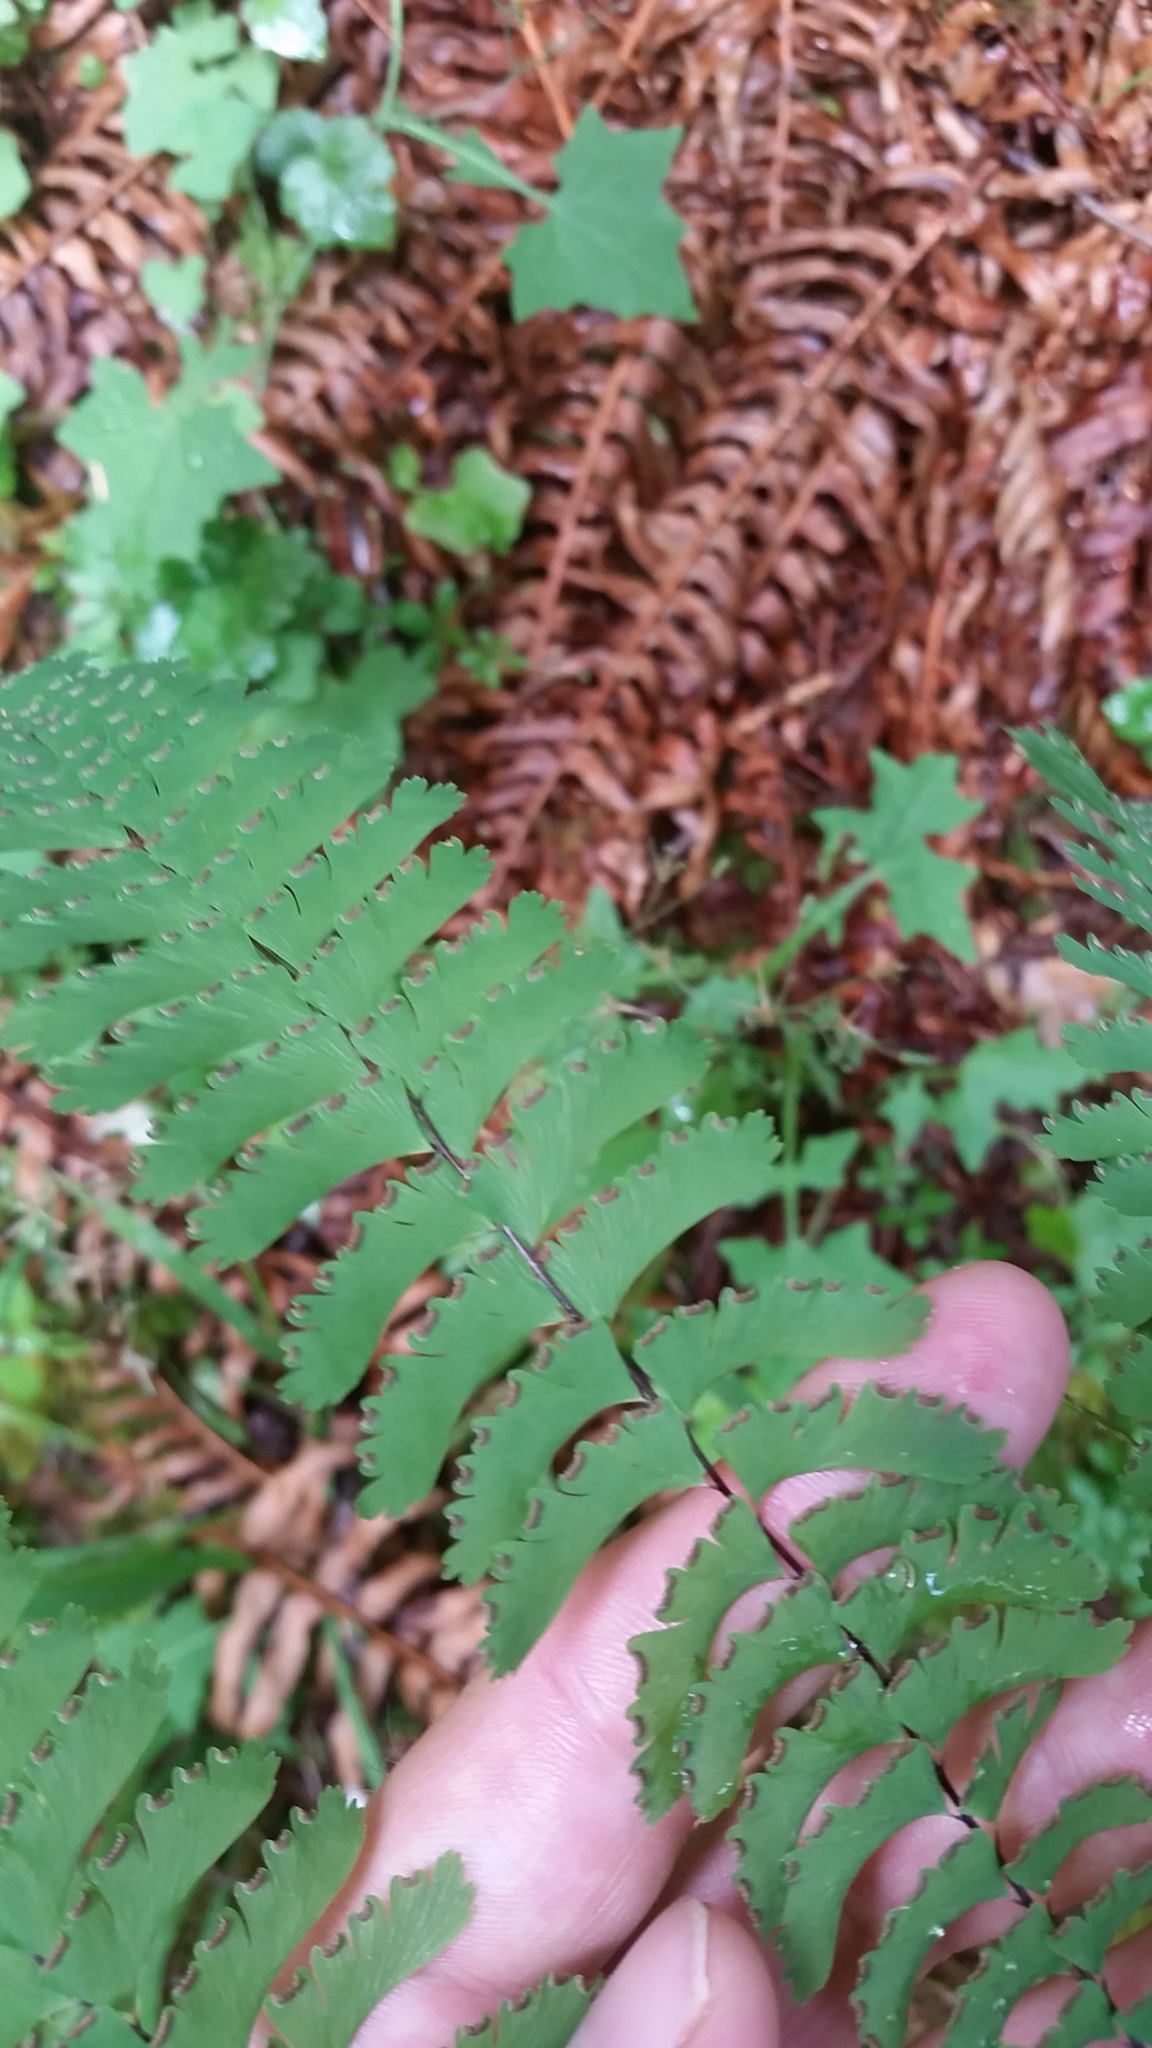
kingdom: Plantae
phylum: Tracheophyta
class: Polypodiopsida
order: Polypodiales
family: Pteridaceae
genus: Adiantum
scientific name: Adiantum aleuticum
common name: Aleutian maidenhair fern
